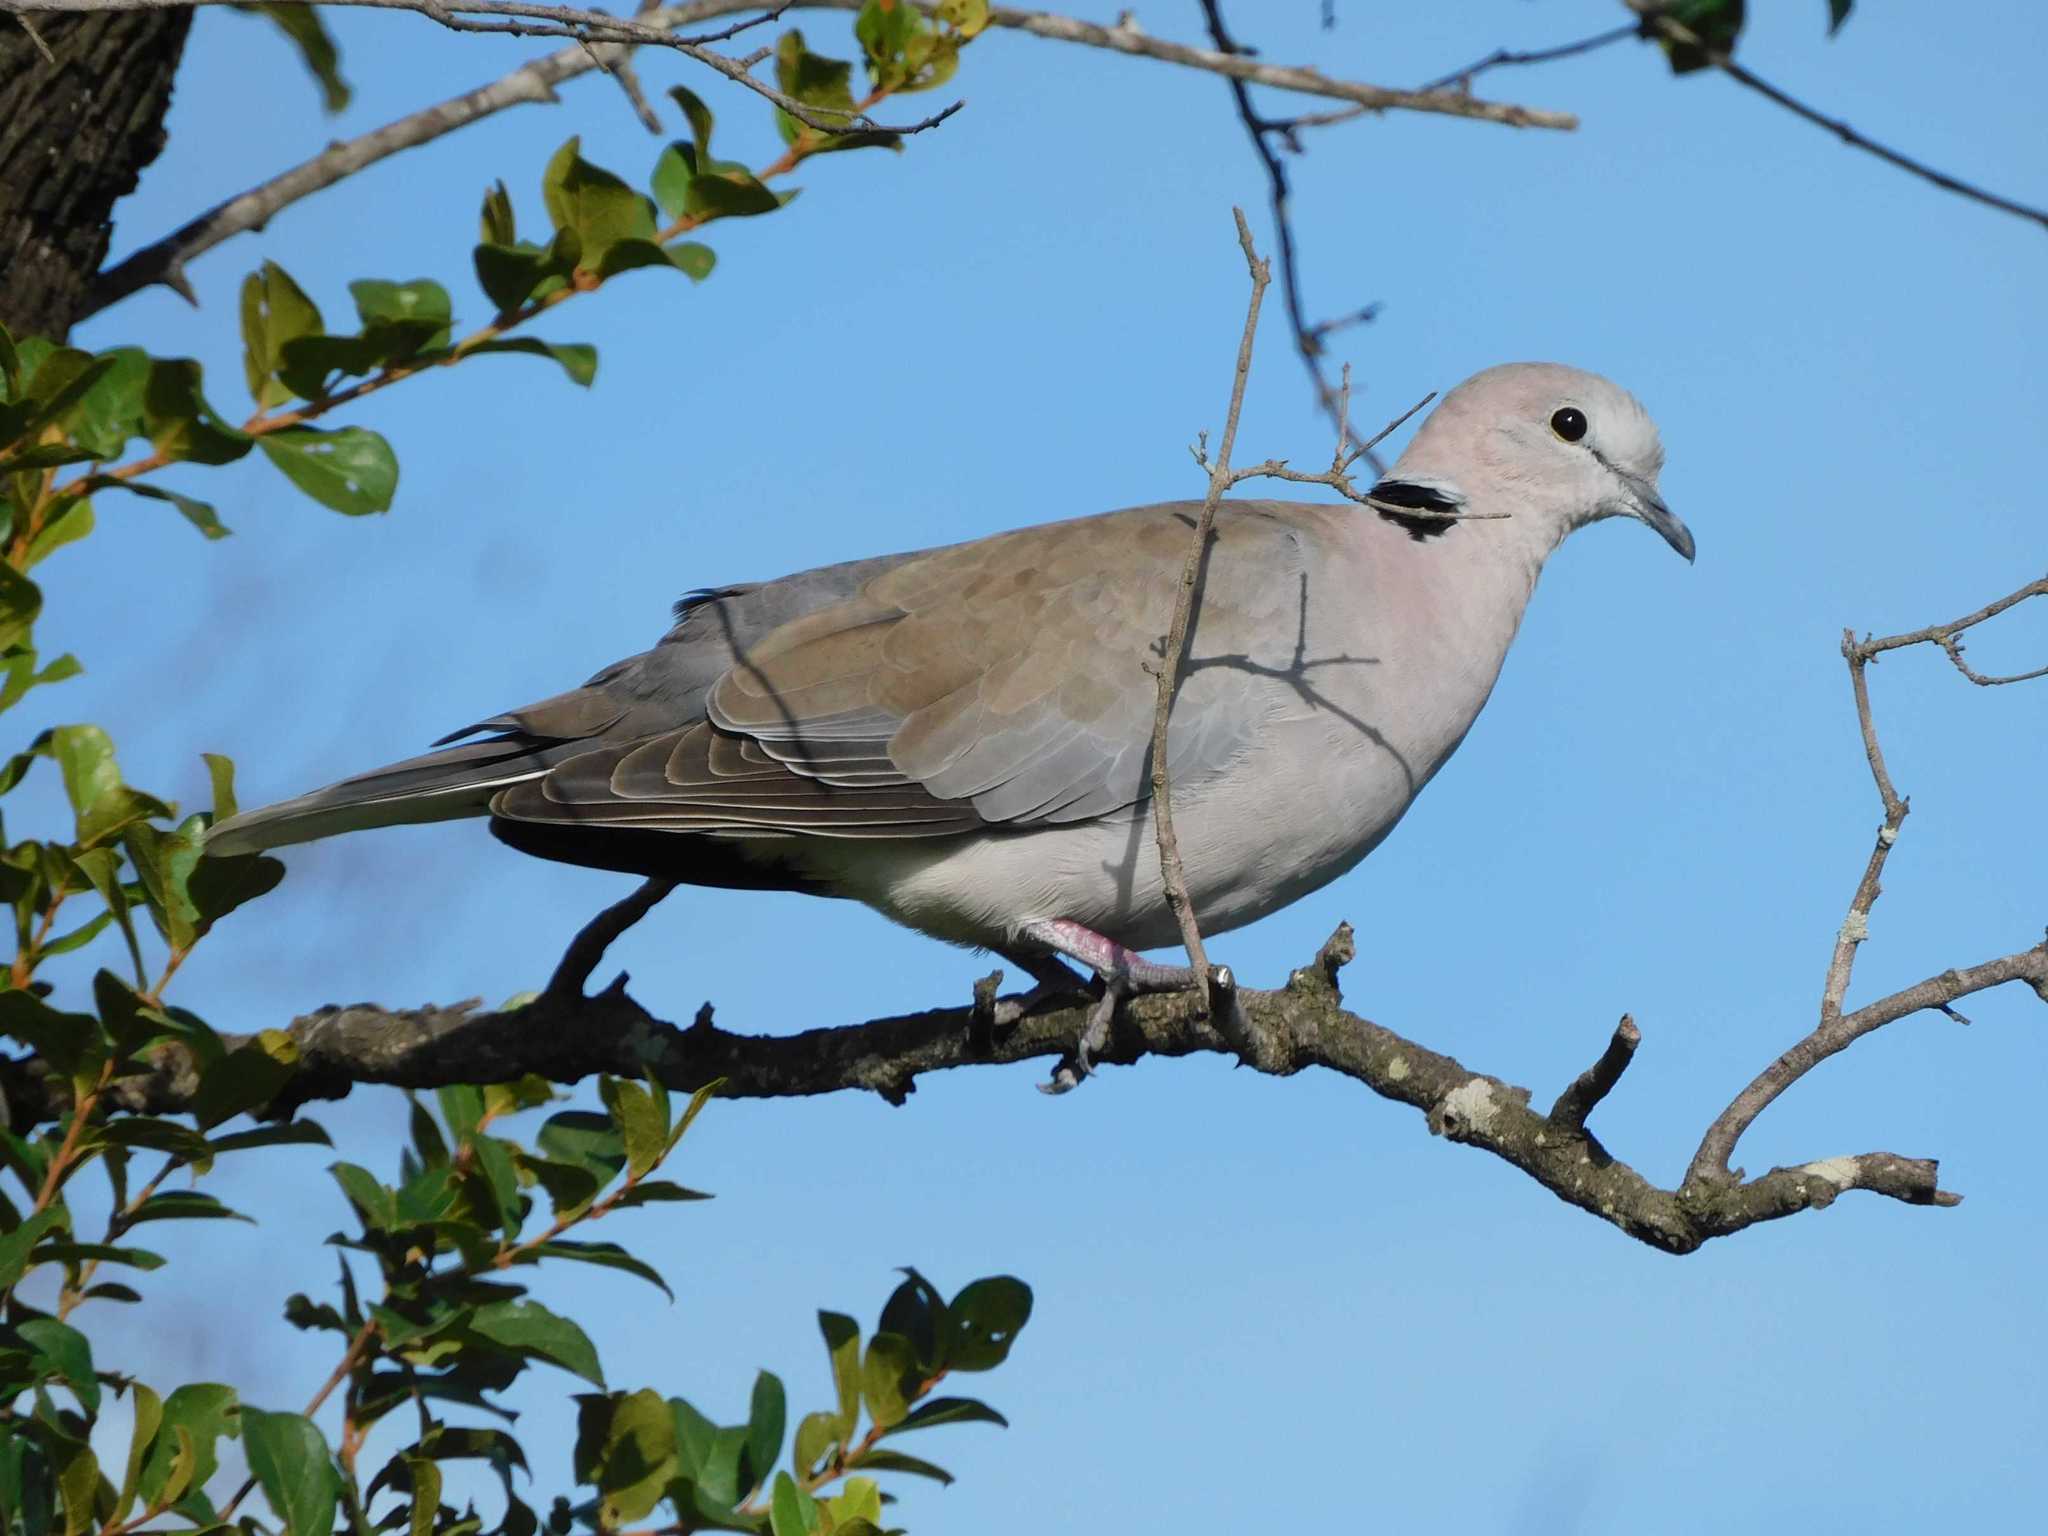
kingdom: Animalia
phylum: Chordata
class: Aves
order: Columbiformes
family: Columbidae
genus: Streptopelia
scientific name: Streptopelia capicola
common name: Ring-necked dove
